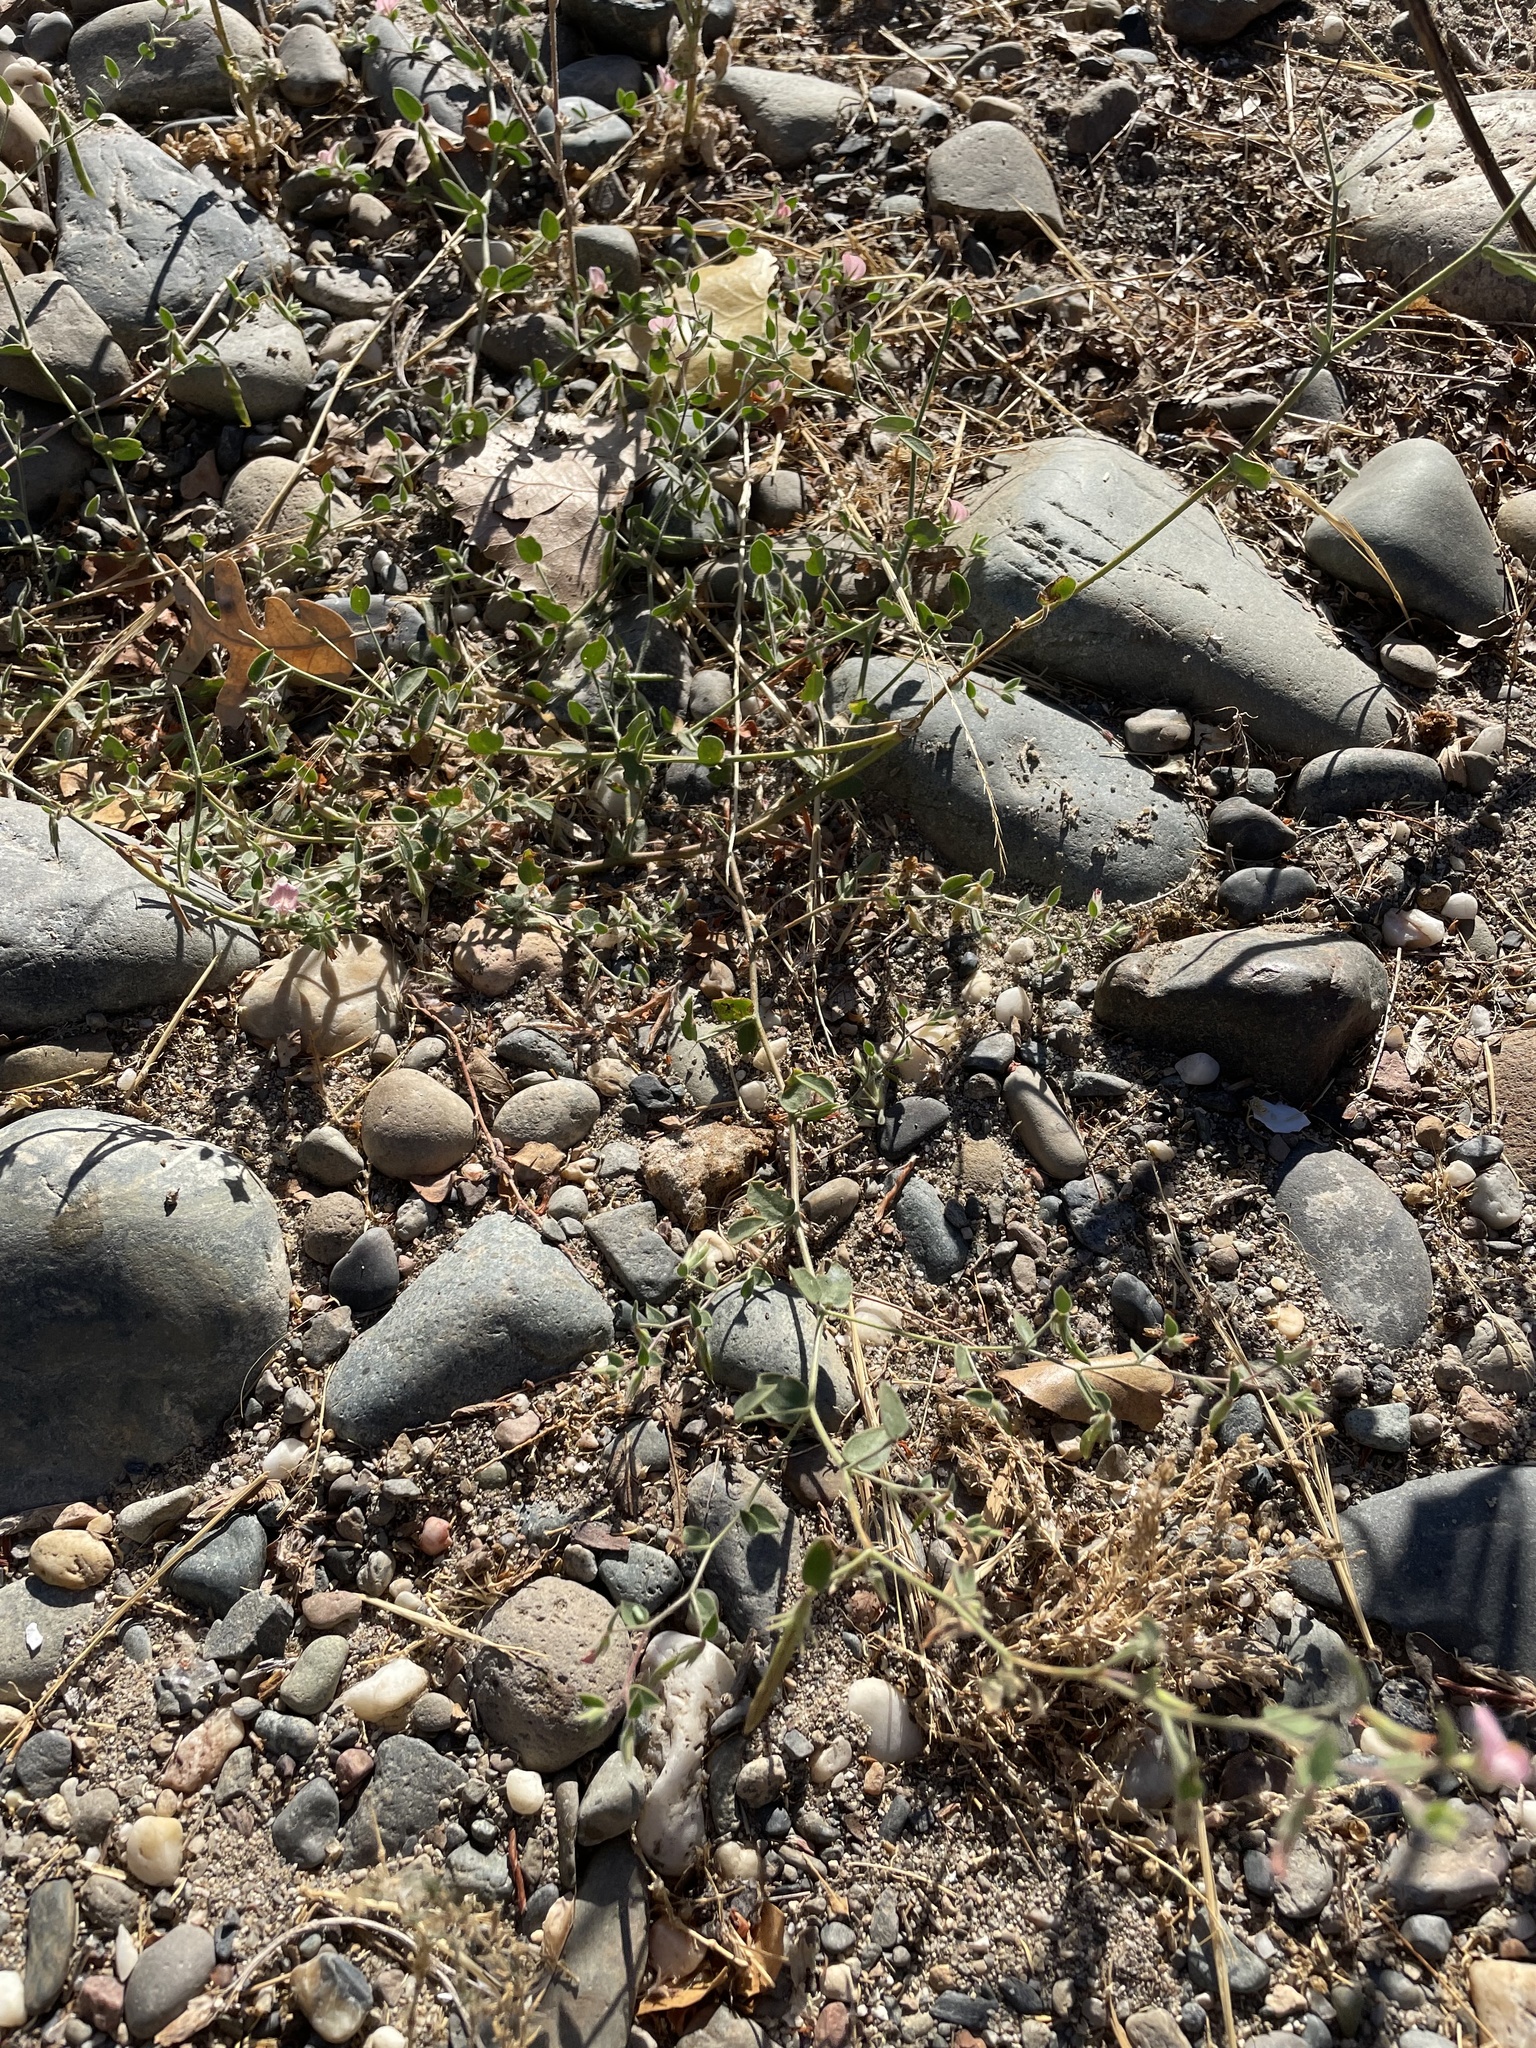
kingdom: Plantae
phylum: Tracheophyta
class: Magnoliopsida
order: Fabales
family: Fabaceae
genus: Acmispon
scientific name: Acmispon americanus
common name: American bird's-foot trefoil
